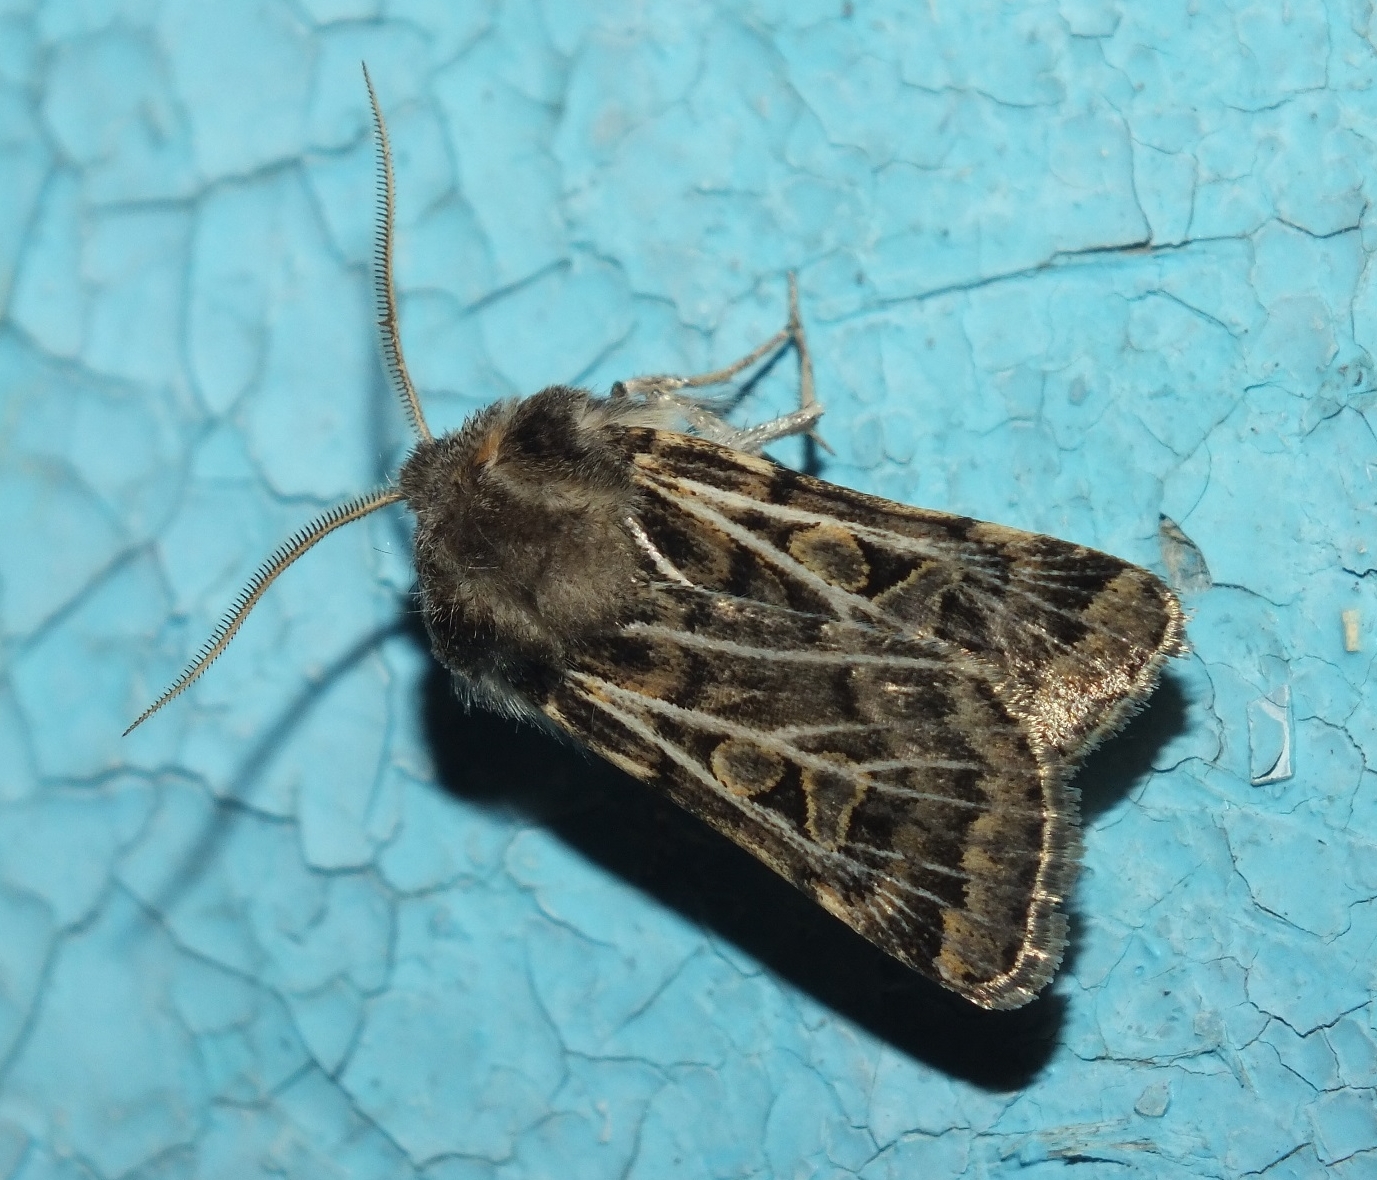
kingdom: Animalia
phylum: Arthropoda
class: Insecta
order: Lepidoptera
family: Noctuidae
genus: Xestia
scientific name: Xestia trifida
